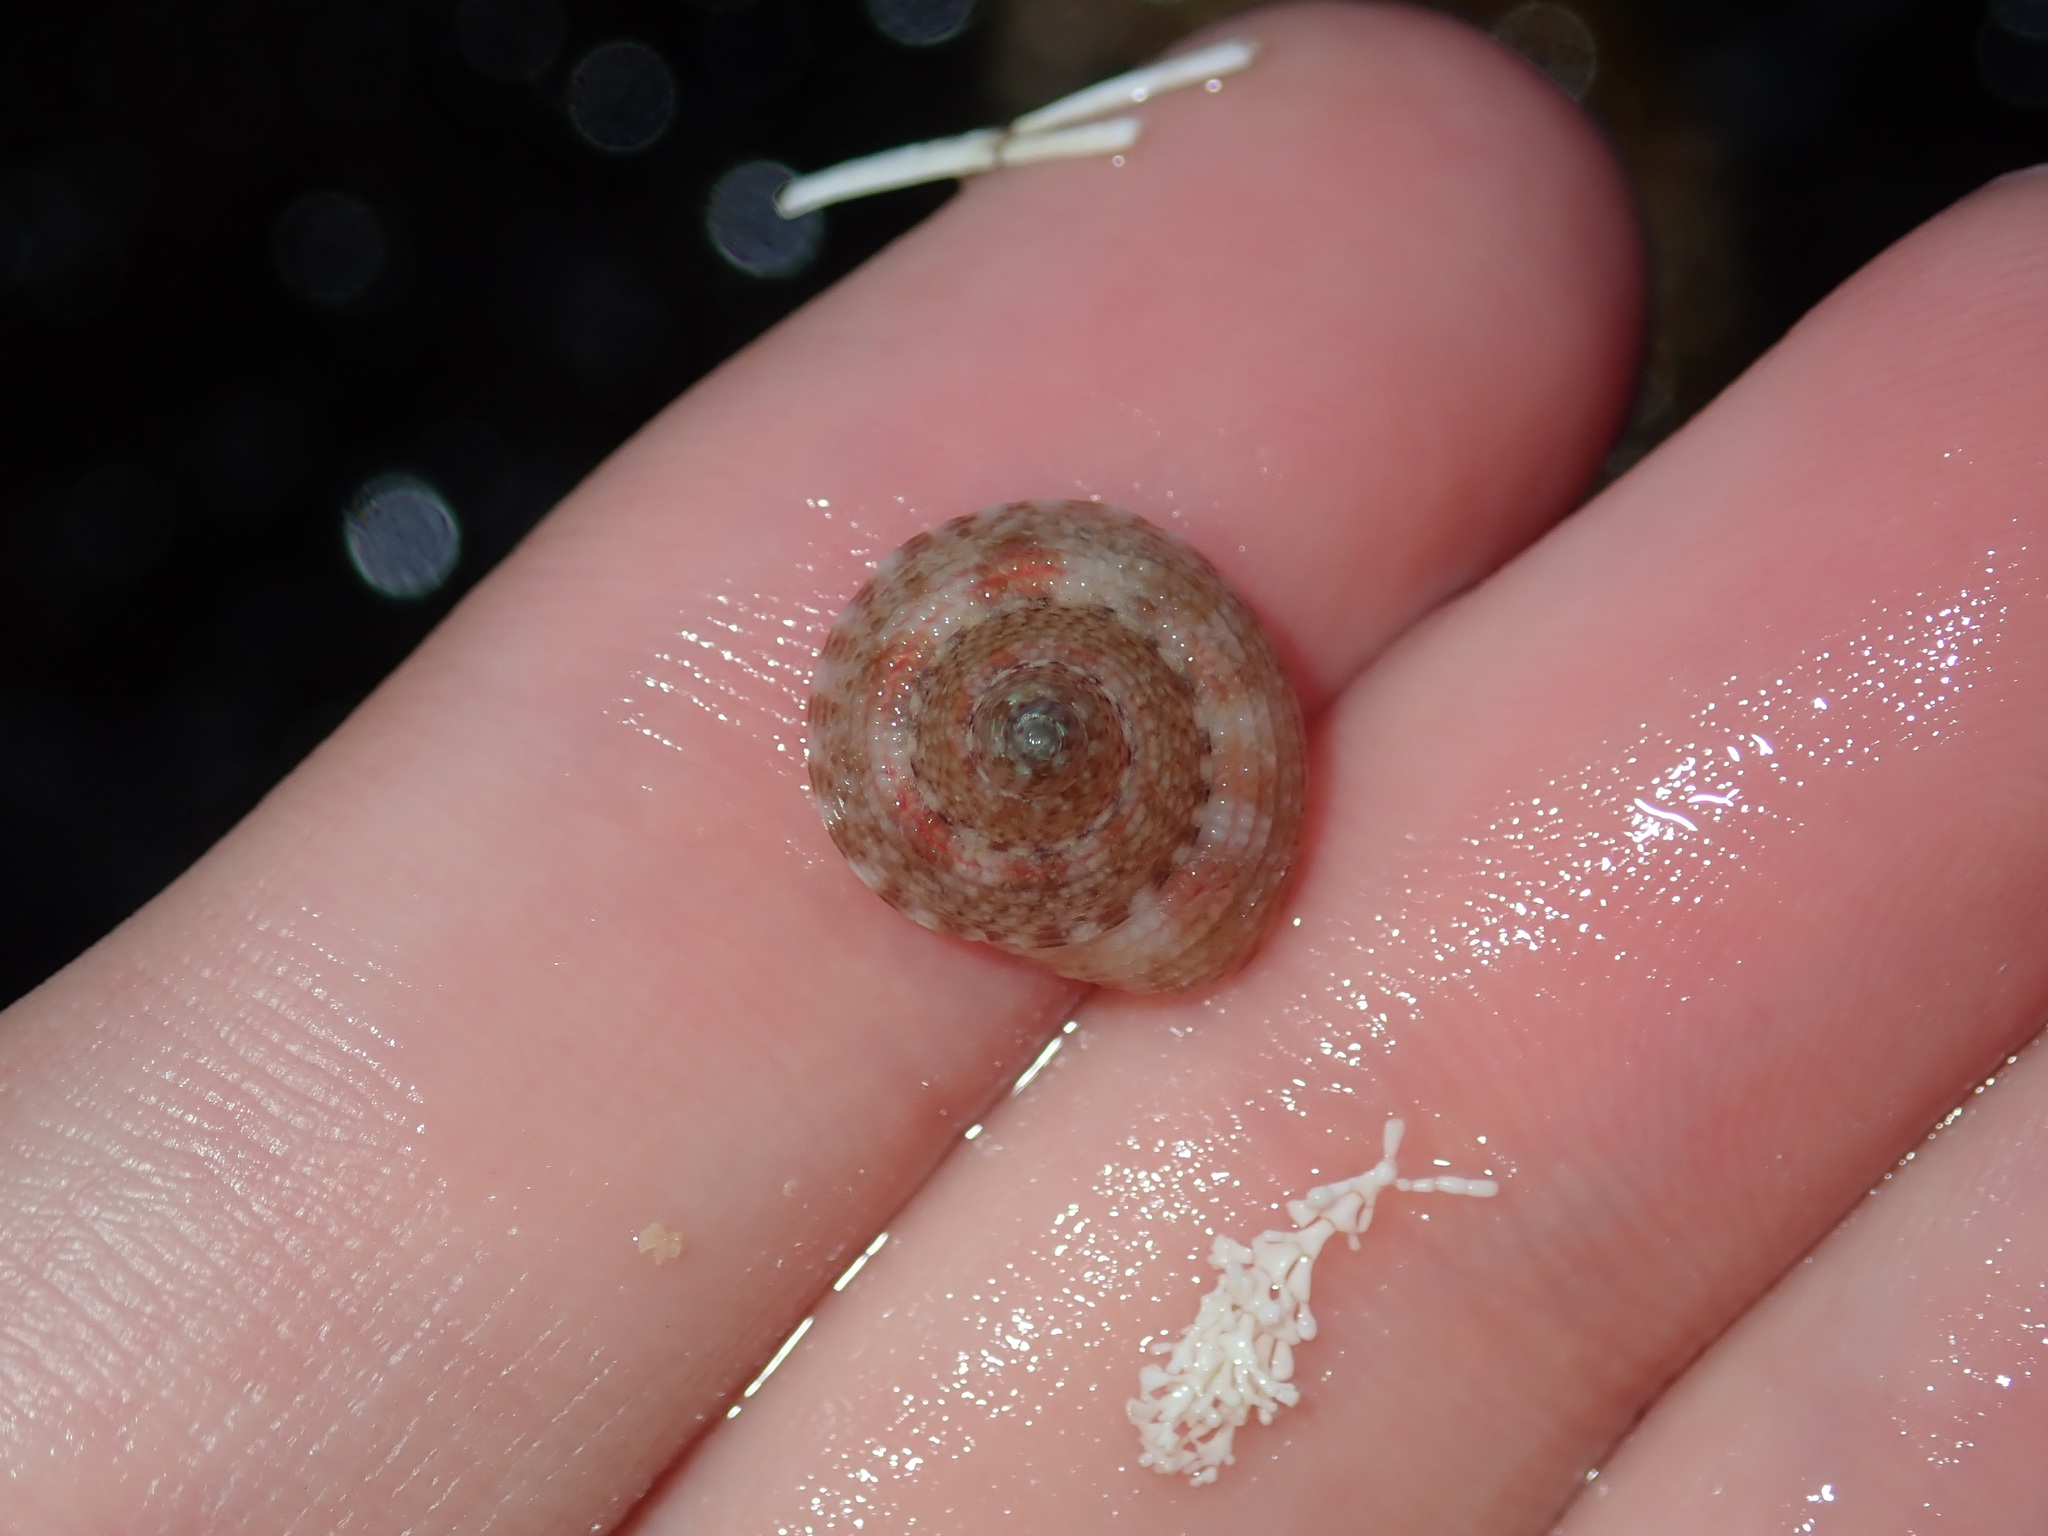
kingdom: Animalia
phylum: Mollusca
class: Gastropoda
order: Trochida
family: Trochidae
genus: Clanculus
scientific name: Clanculus brunneus
